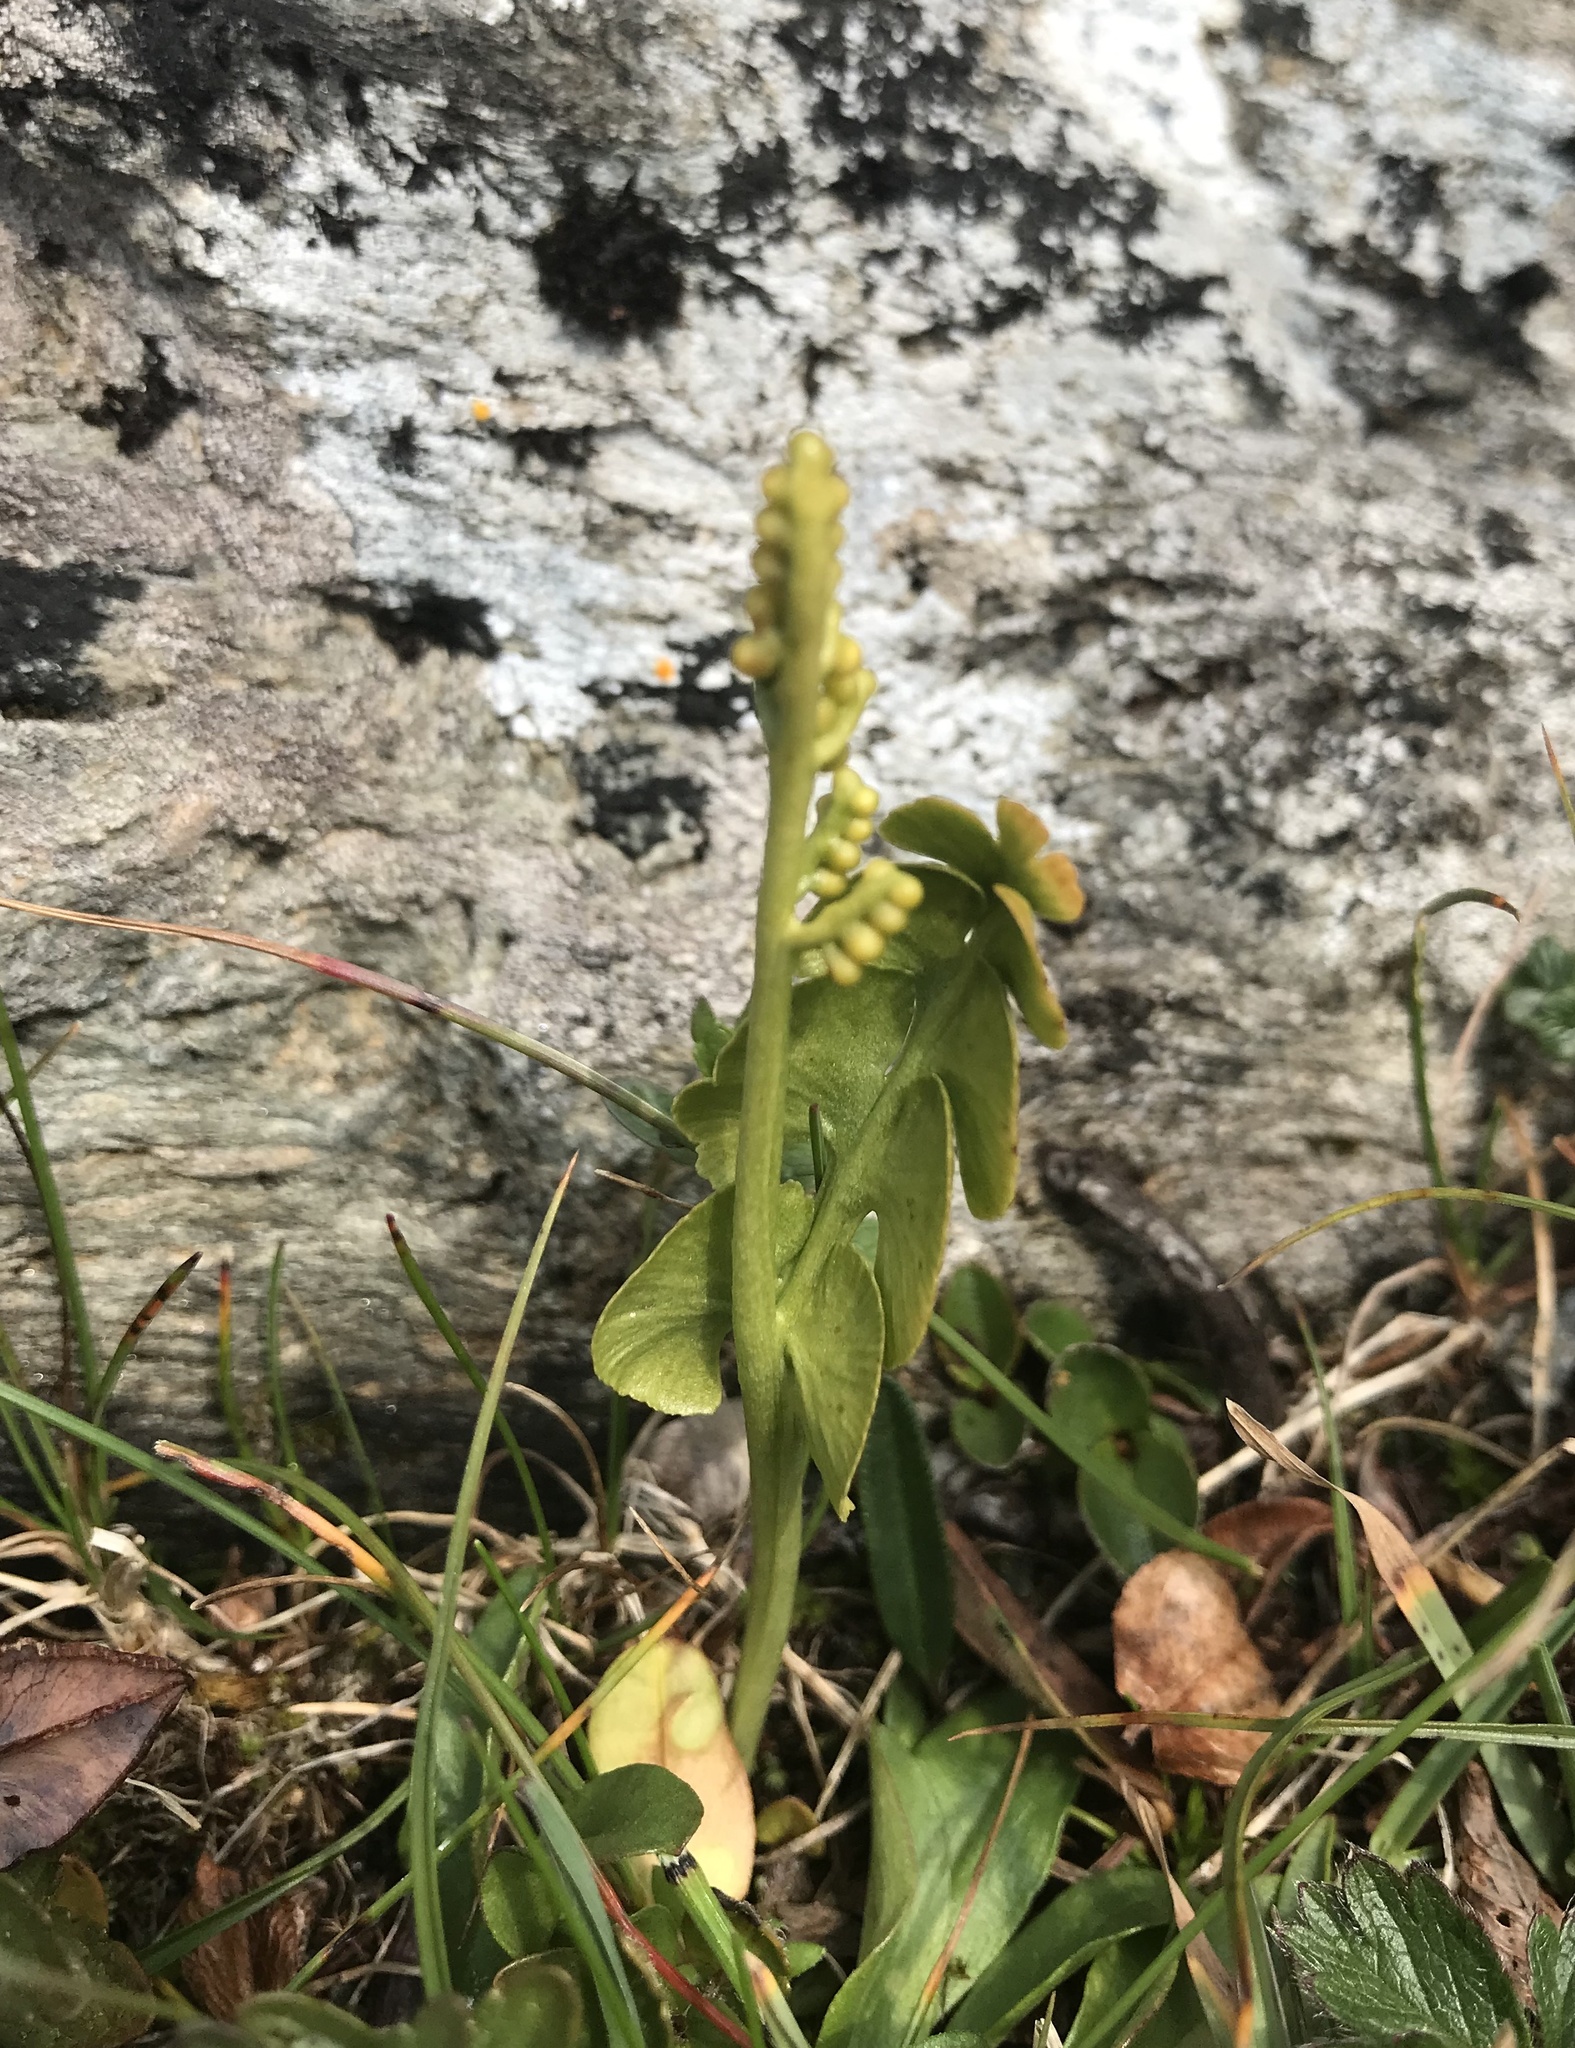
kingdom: Plantae
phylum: Tracheophyta
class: Polypodiopsida
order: Ophioglossales
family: Ophioglossaceae
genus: Botrychium
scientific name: Botrychium lunaria
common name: Moonwort
